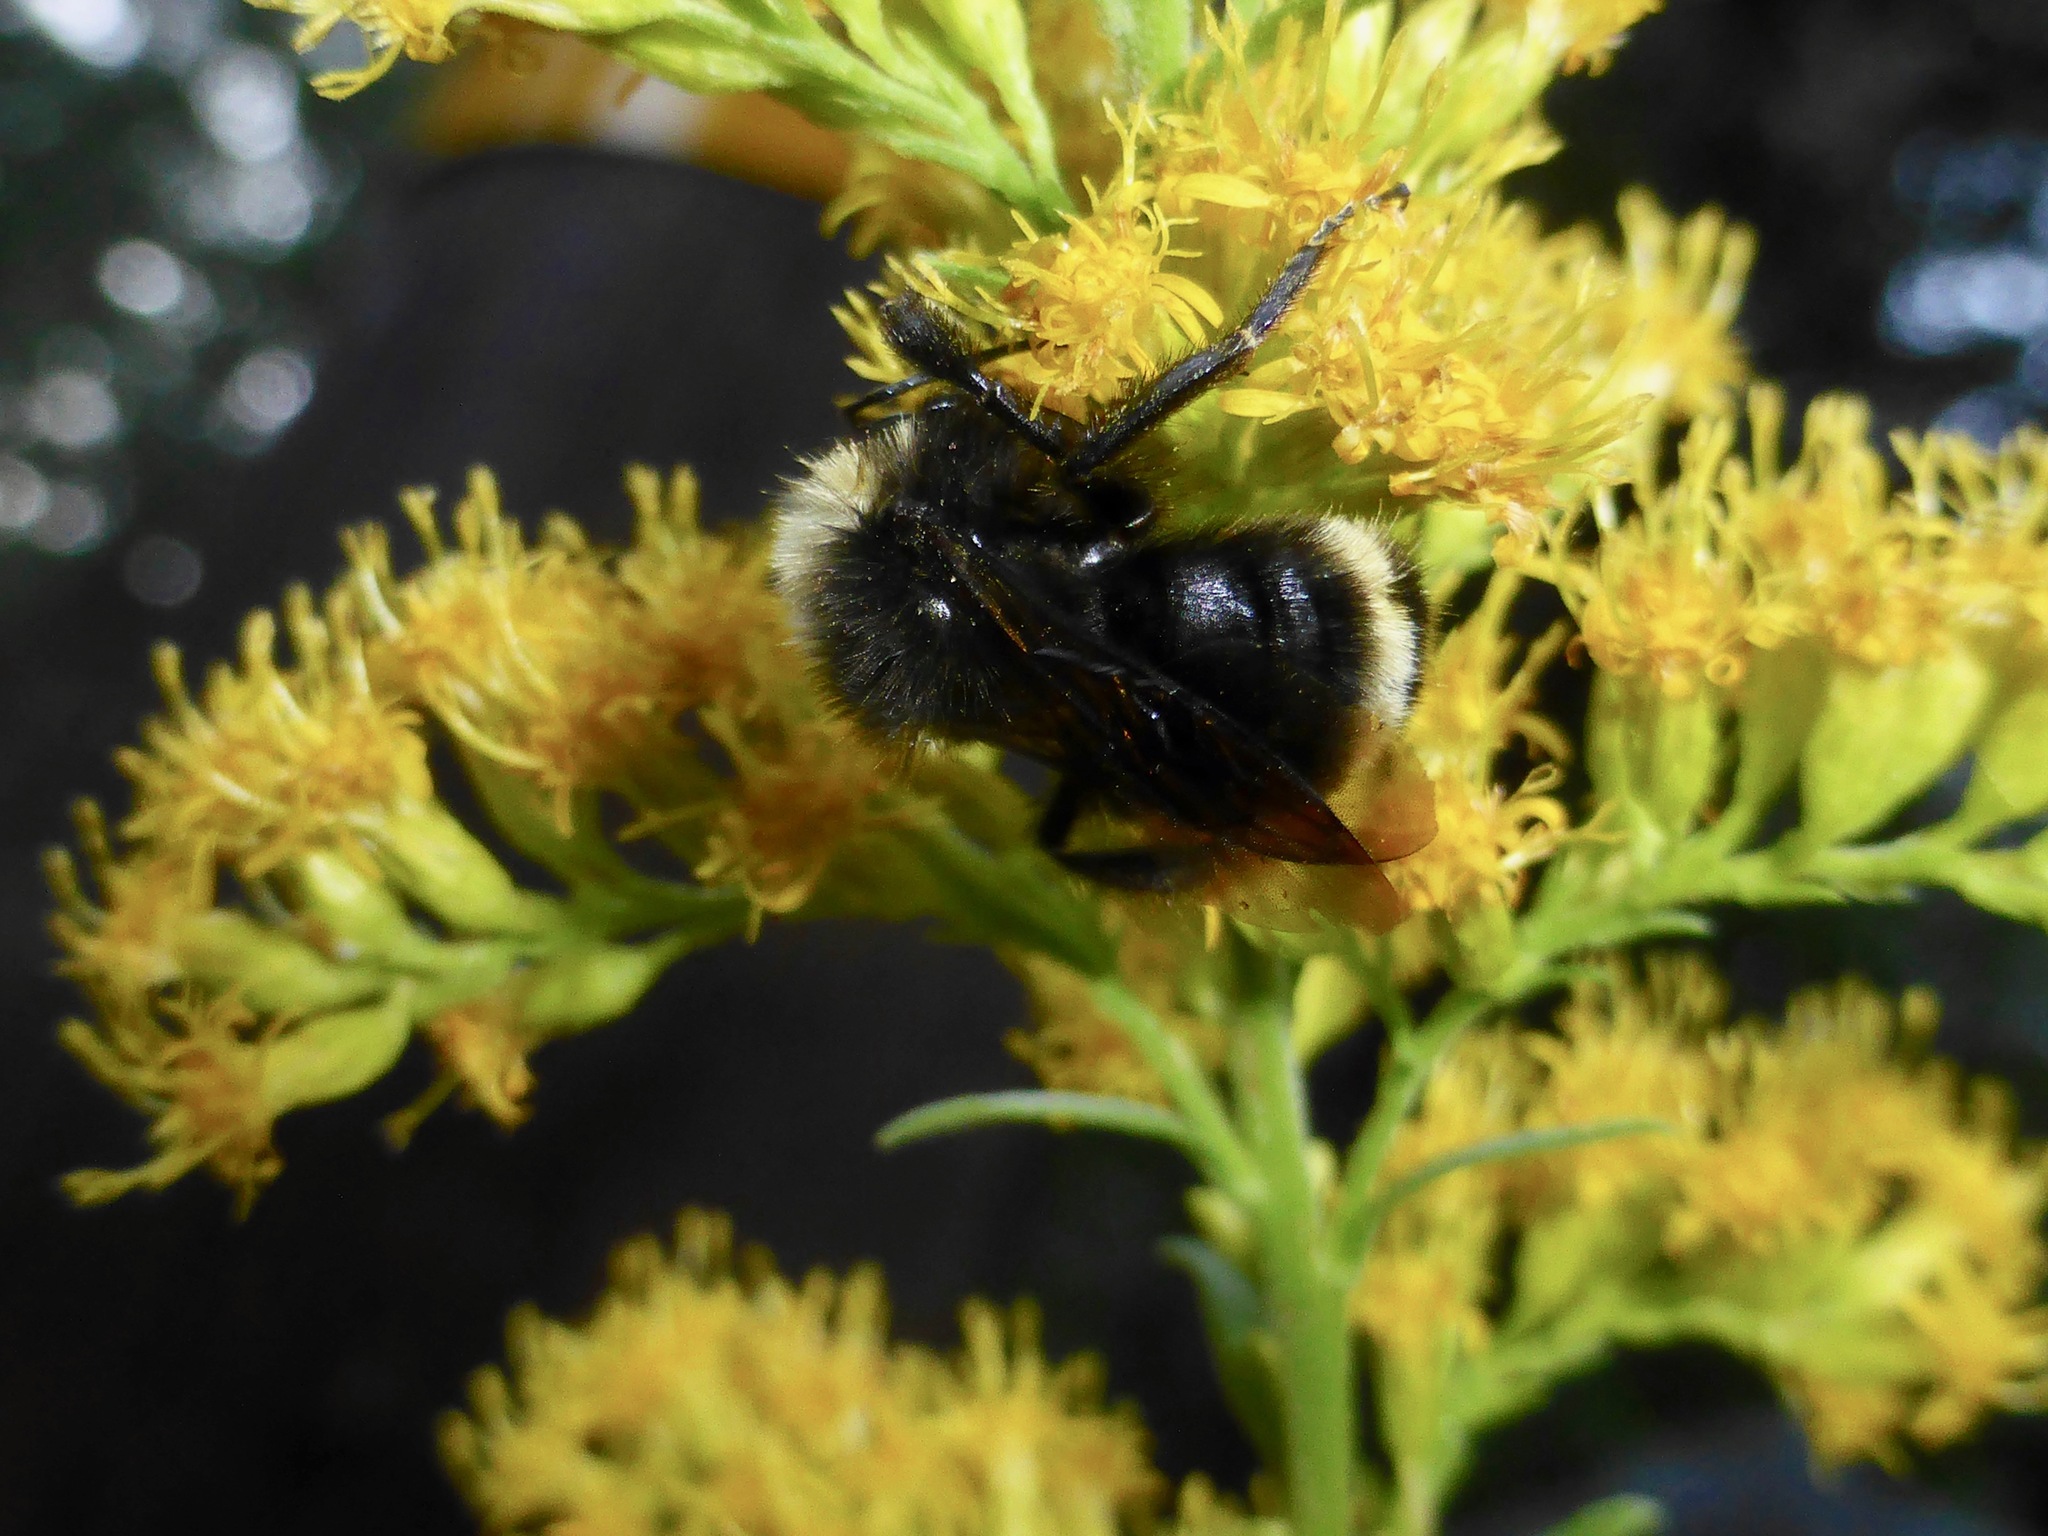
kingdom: Animalia
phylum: Arthropoda
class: Insecta
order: Hymenoptera
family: Apidae
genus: Bombus
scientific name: Bombus
